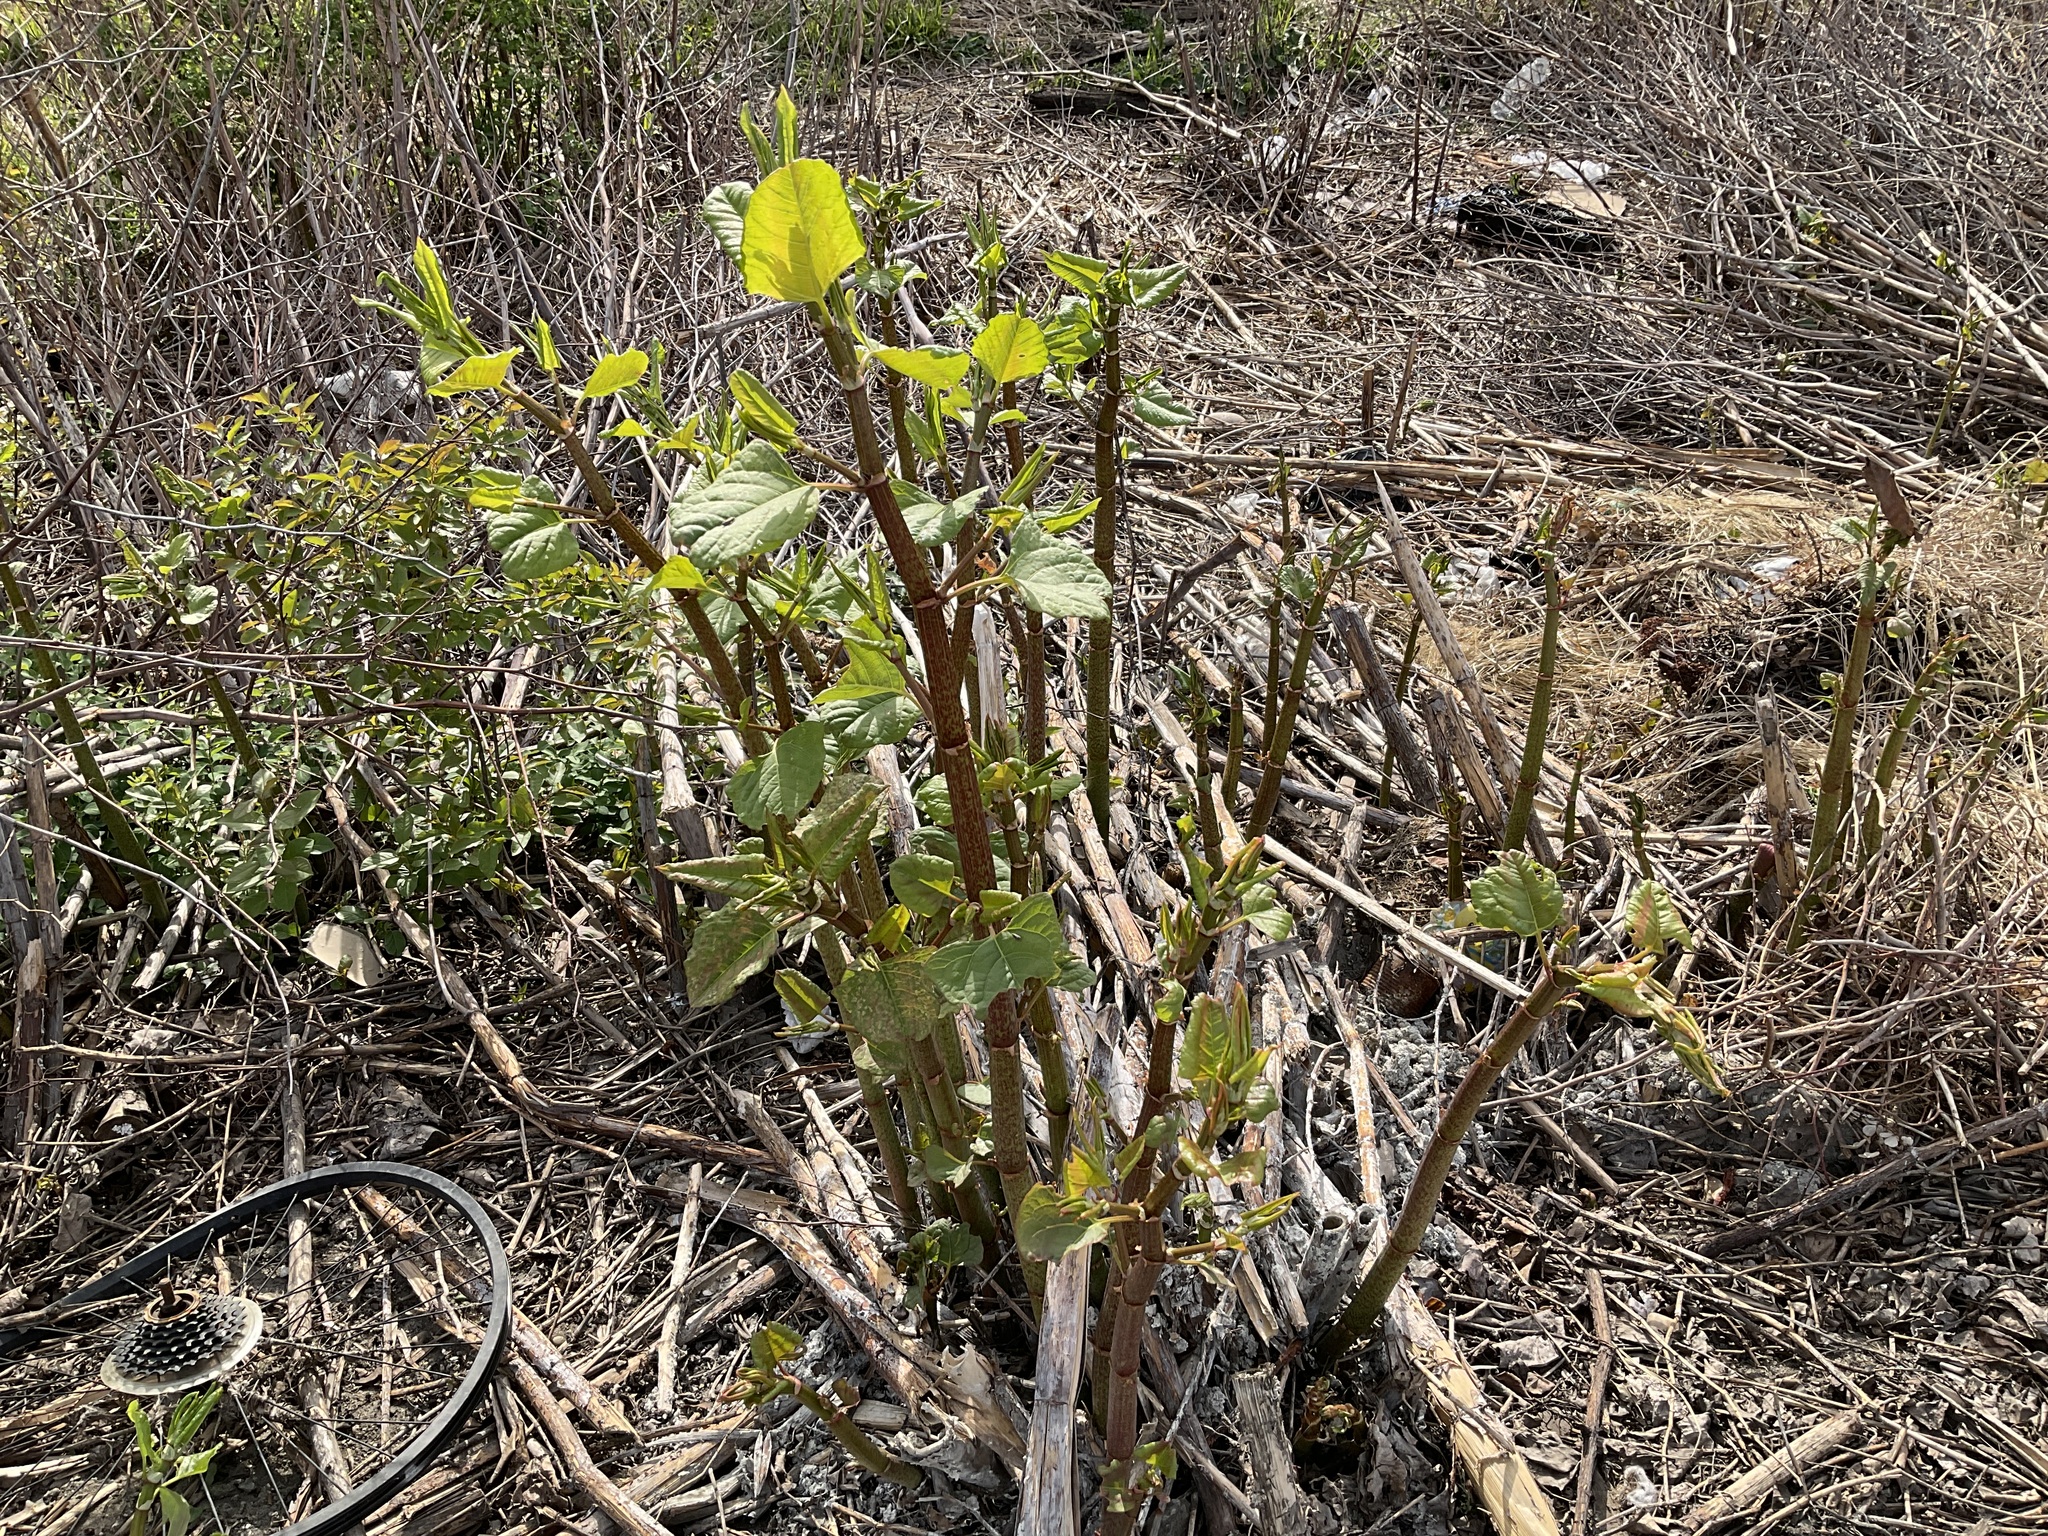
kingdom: Plantae
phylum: Tracheophyta
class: Magnoliopsida
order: Caryophyllales
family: Polygonaceae
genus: Reynoutria
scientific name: Reynoutria japonica
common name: Japanese knotweed
